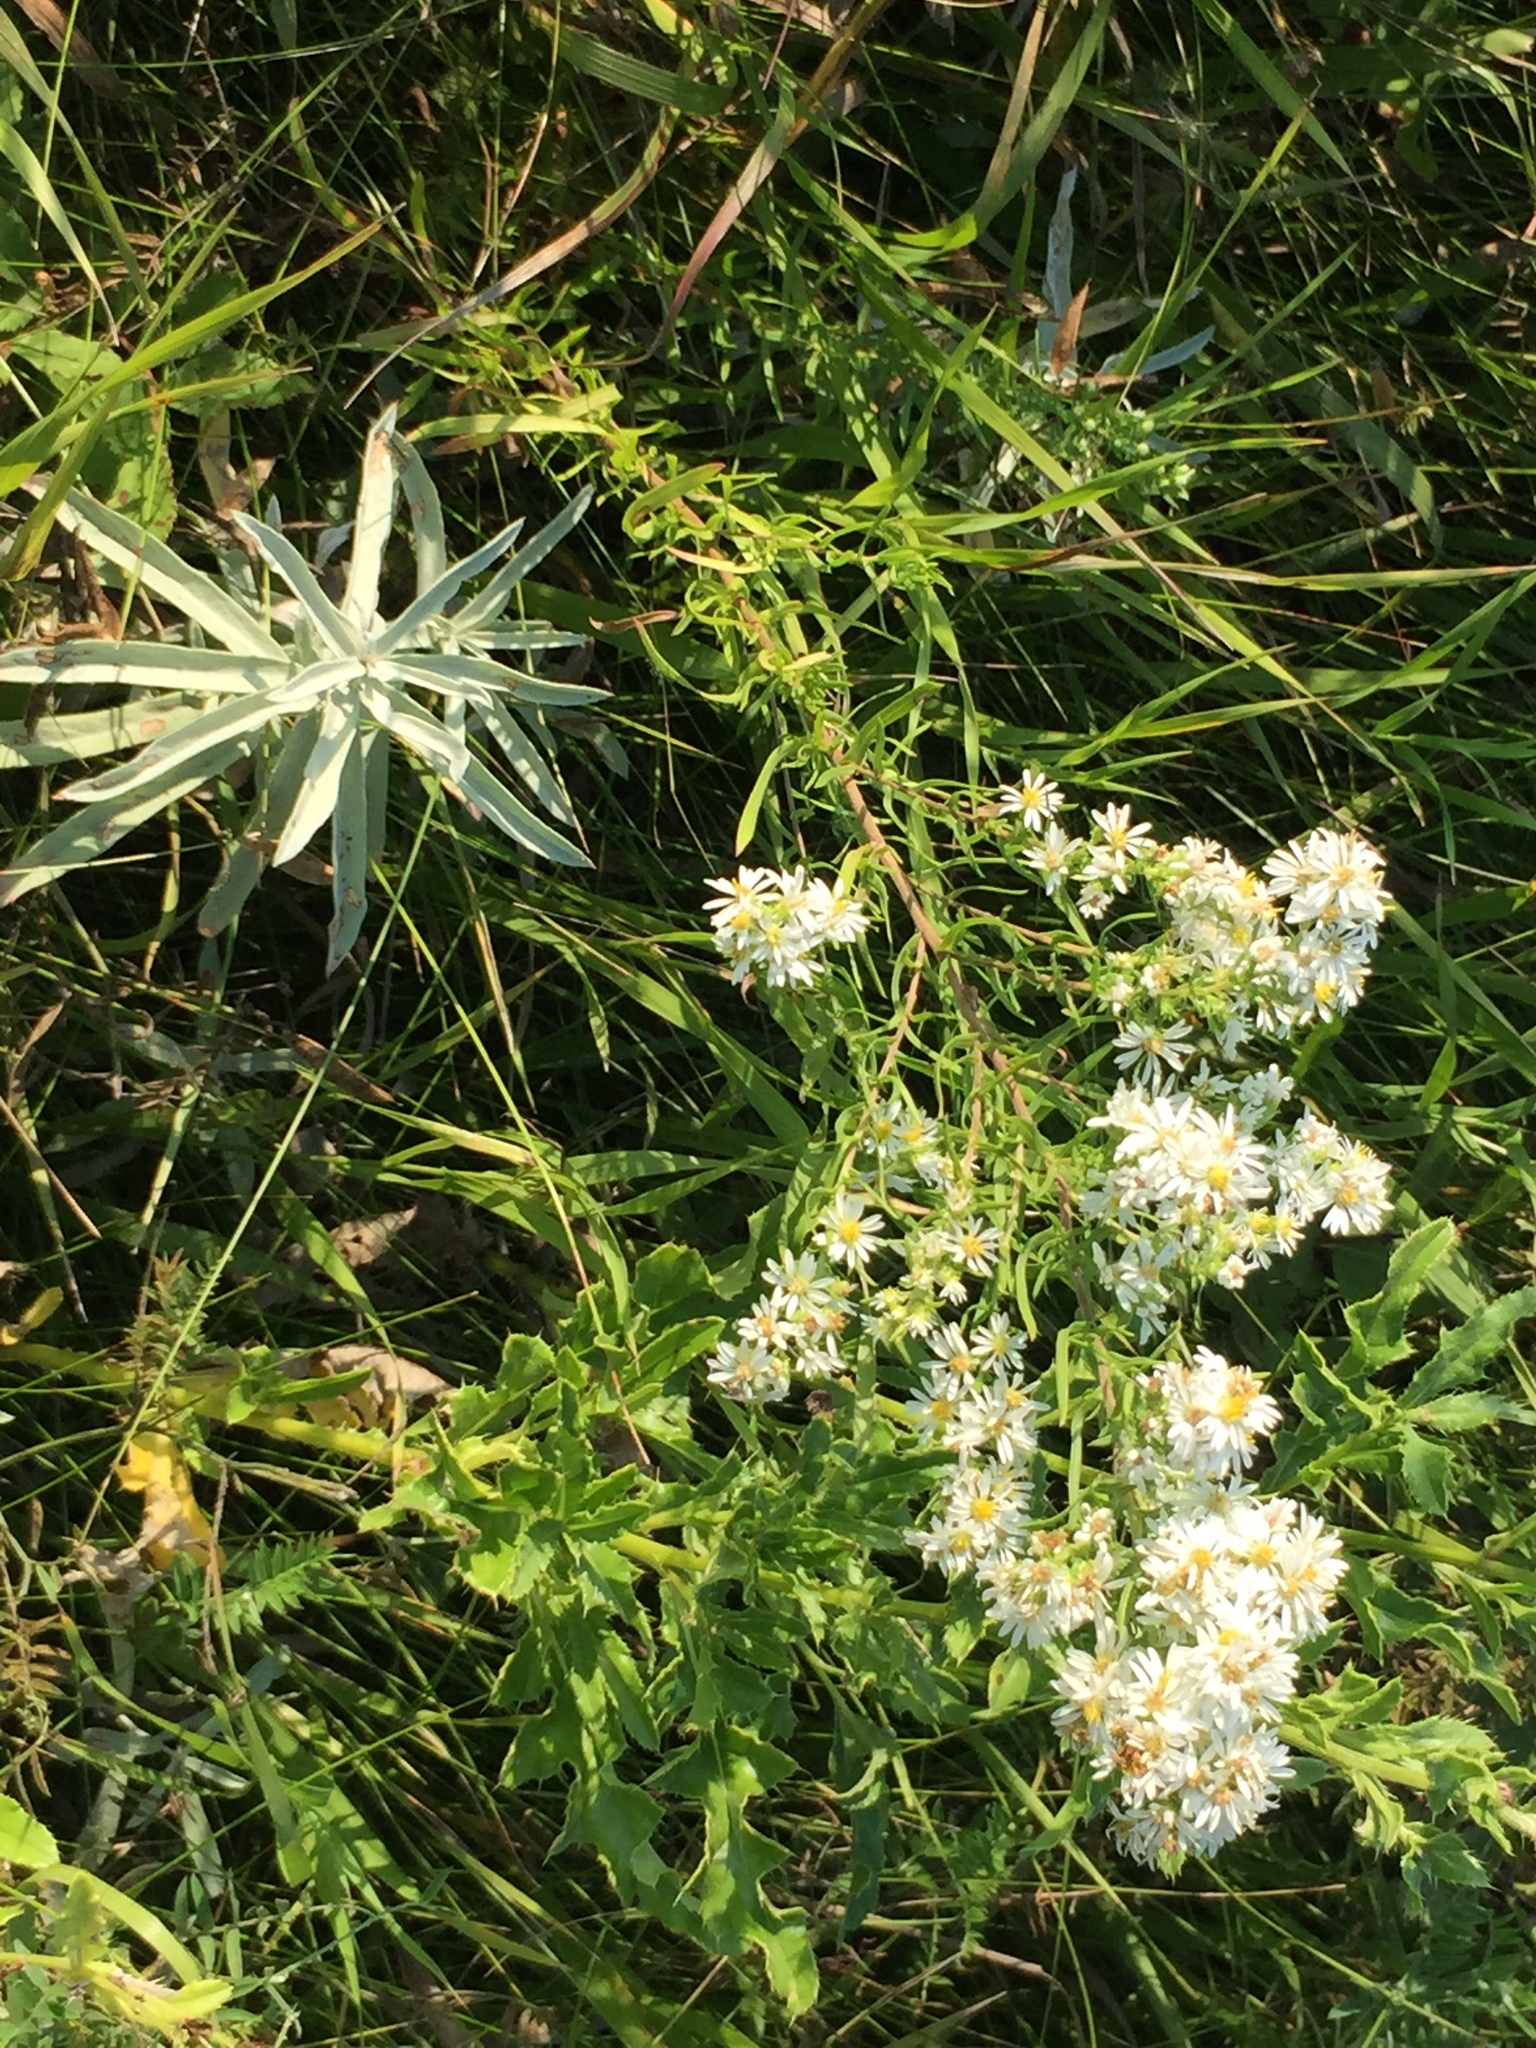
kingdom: Plantae
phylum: Tracheophyta
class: Magnoliopsida
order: Asterales
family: Asteraceae
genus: Symphyotrichum
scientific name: Symphyotrichum ericoides
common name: Heath aster
